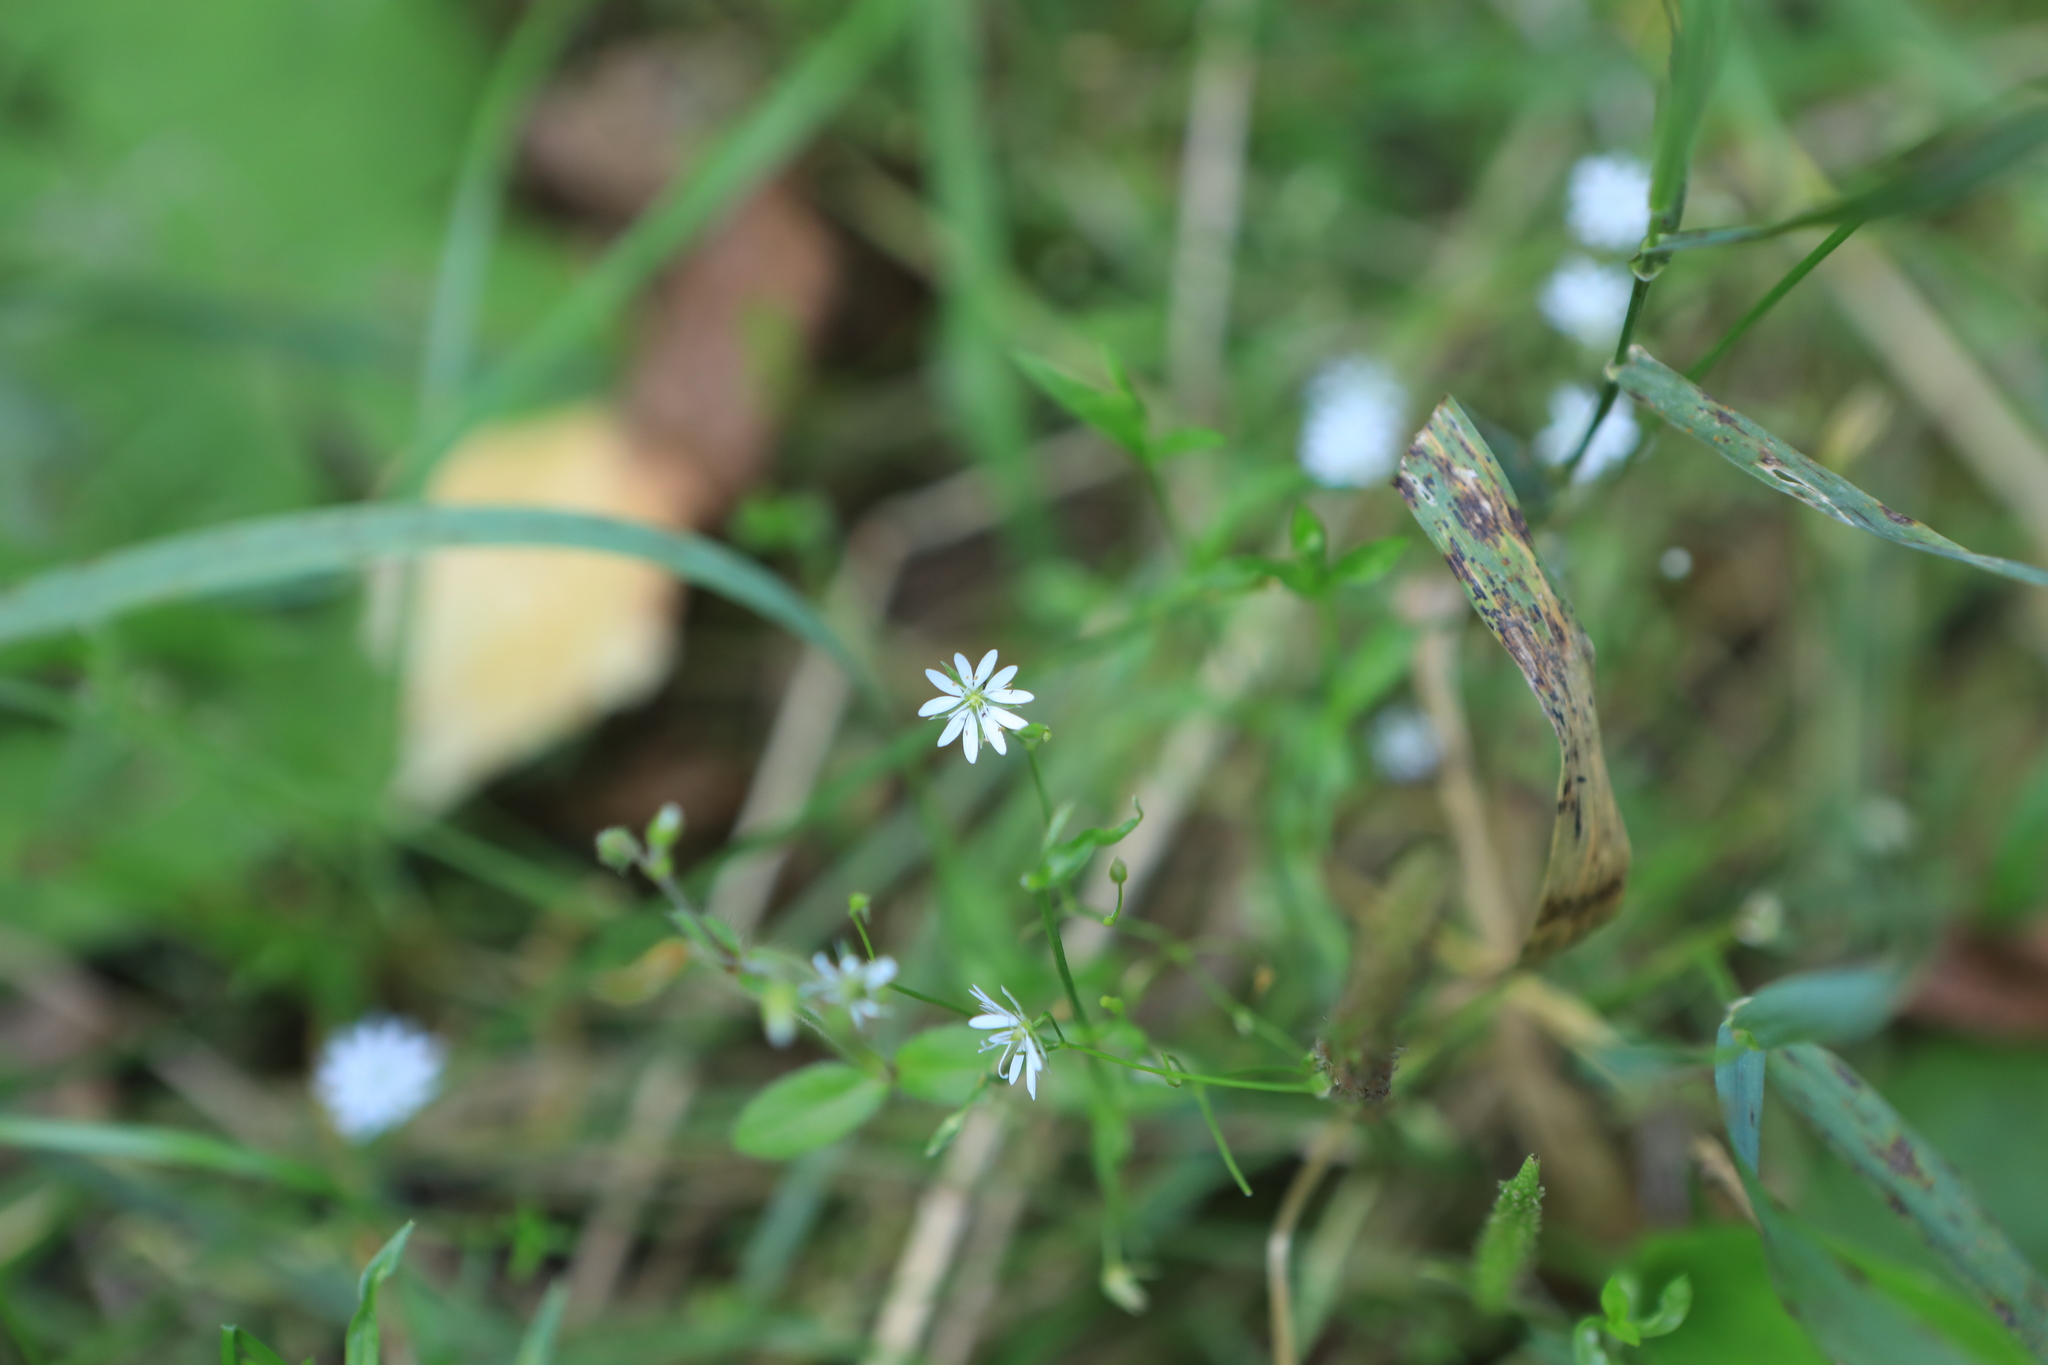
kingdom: Plantae
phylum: Tracheophyta
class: Magnoliopsida
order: Caryophyllales
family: Caryophyllaceae
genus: Stellaria
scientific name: Stellaria graminea
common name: Grass-like starwort
